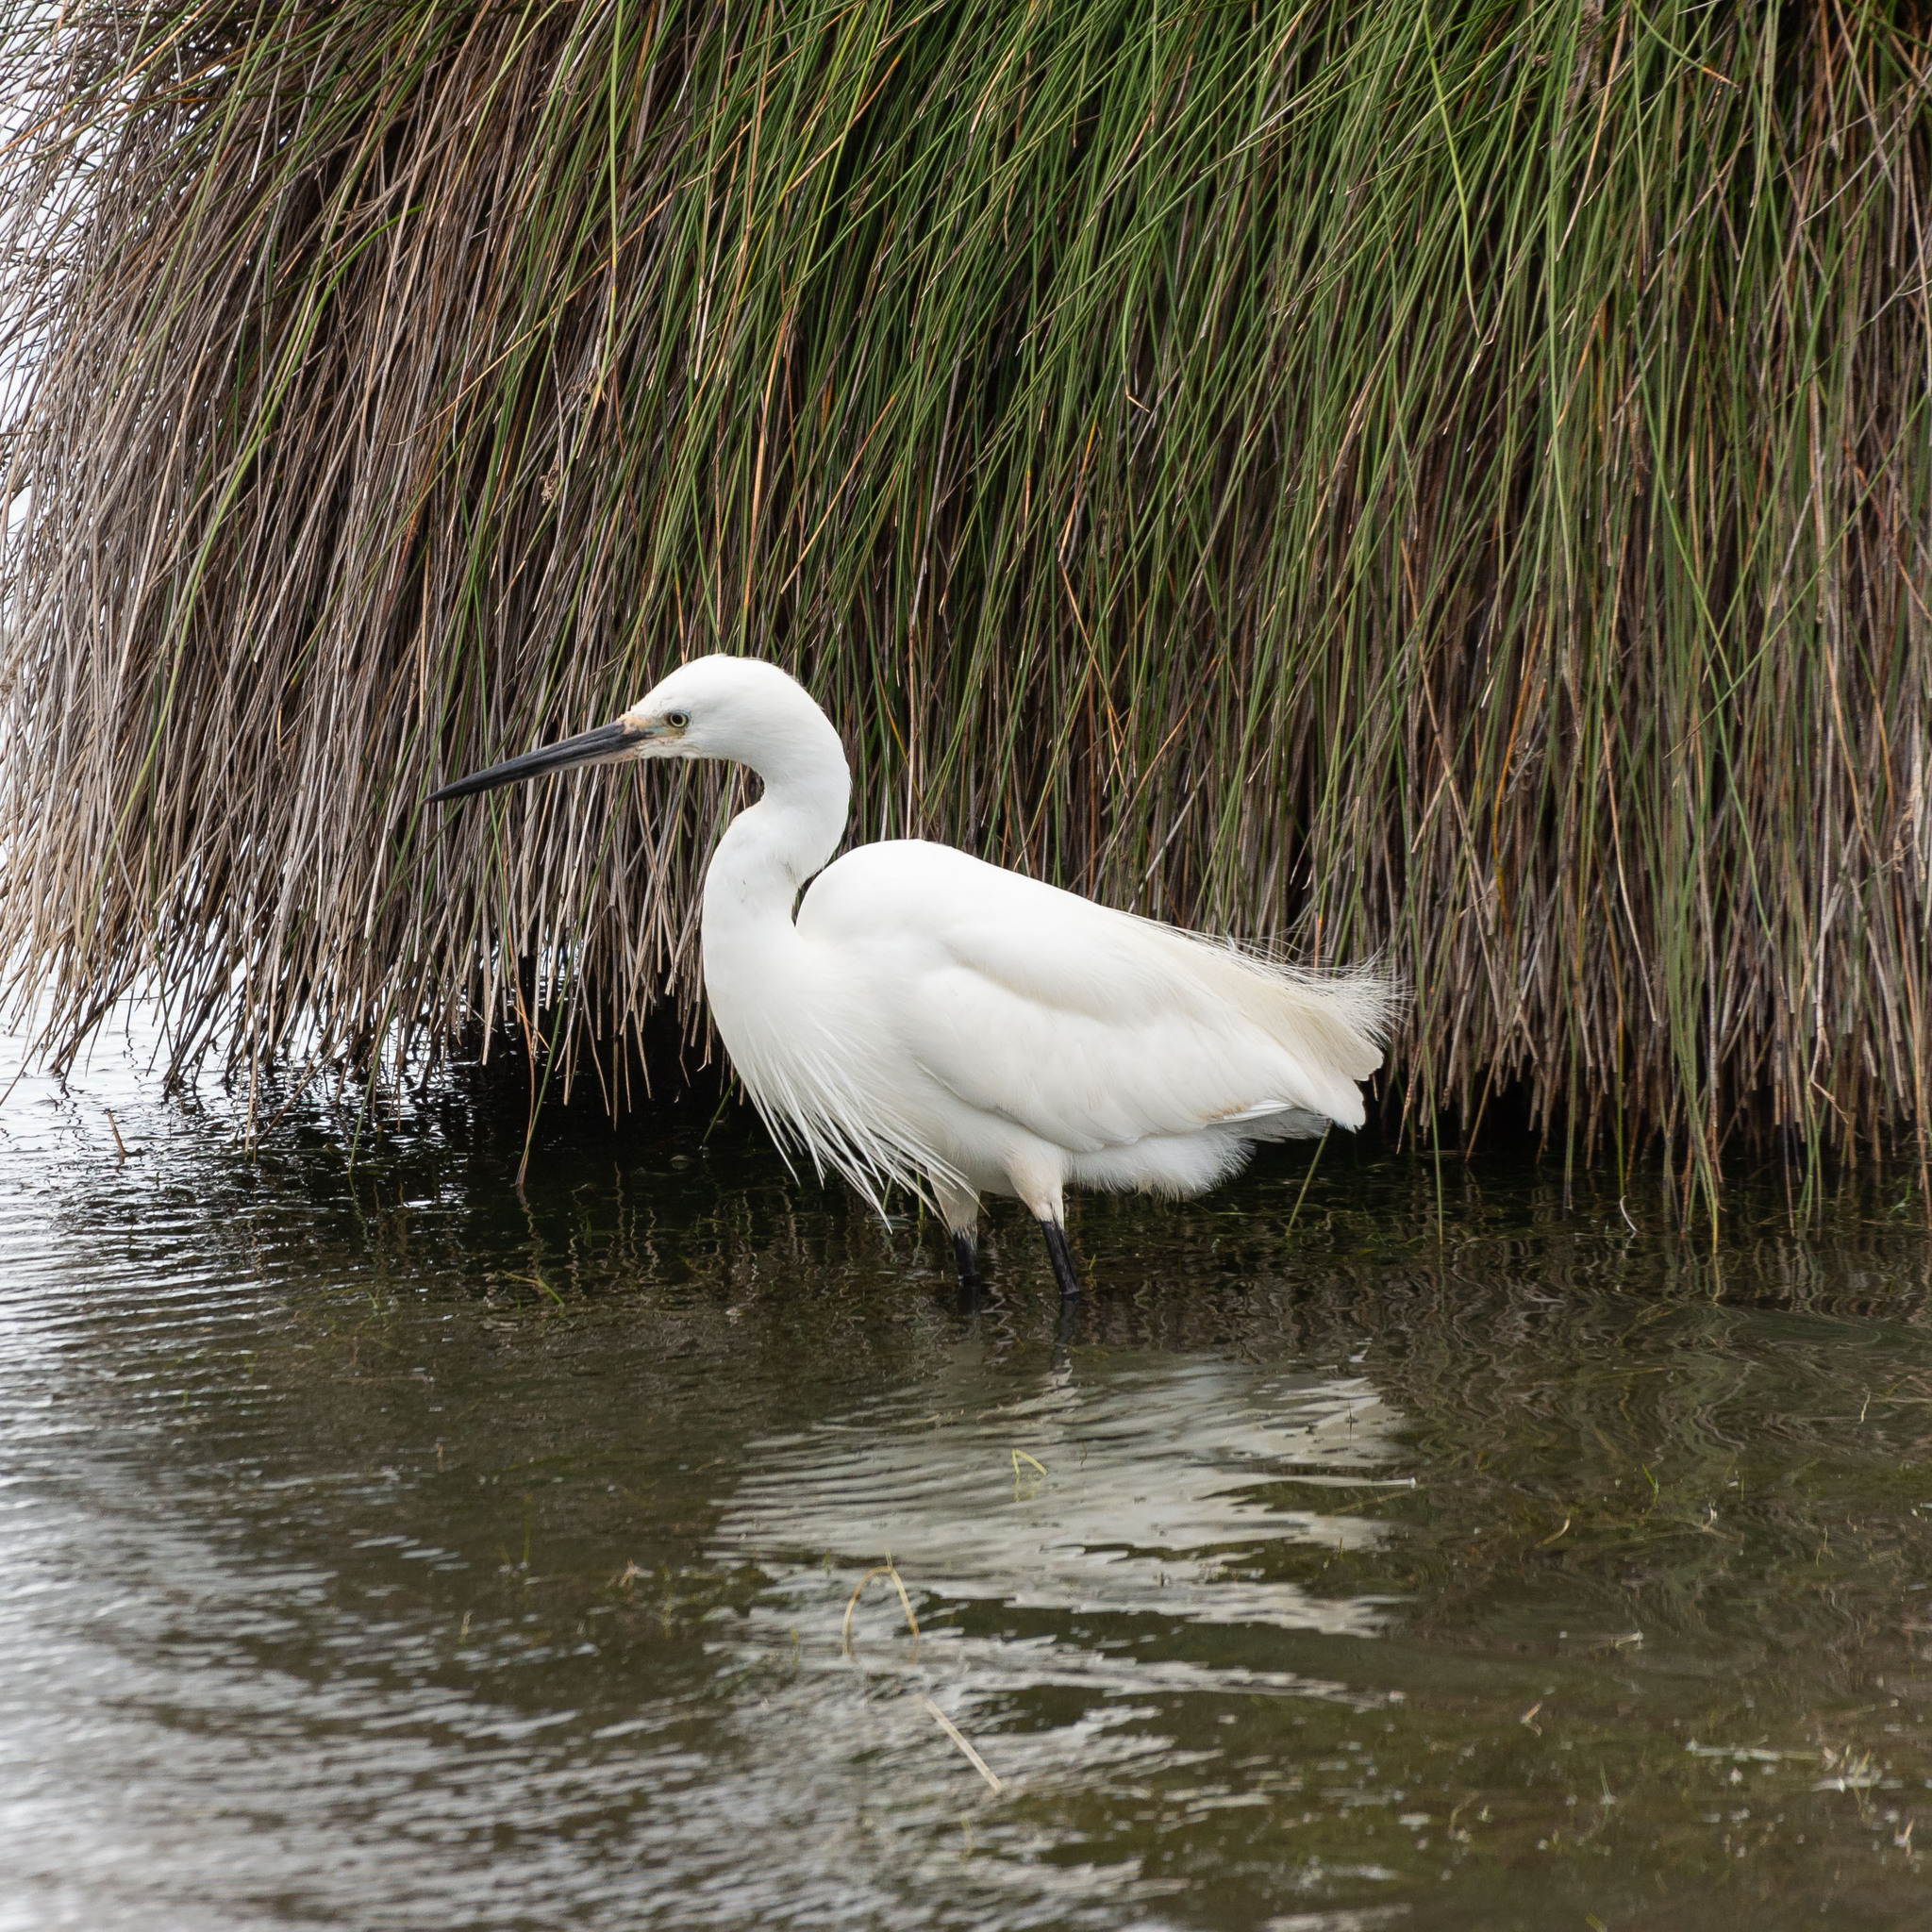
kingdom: Animalia
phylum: Chordata
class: Aves
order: Pelecaniformes
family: Ardeidae
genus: Egretta
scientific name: Egretta garzetta
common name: Little egret
